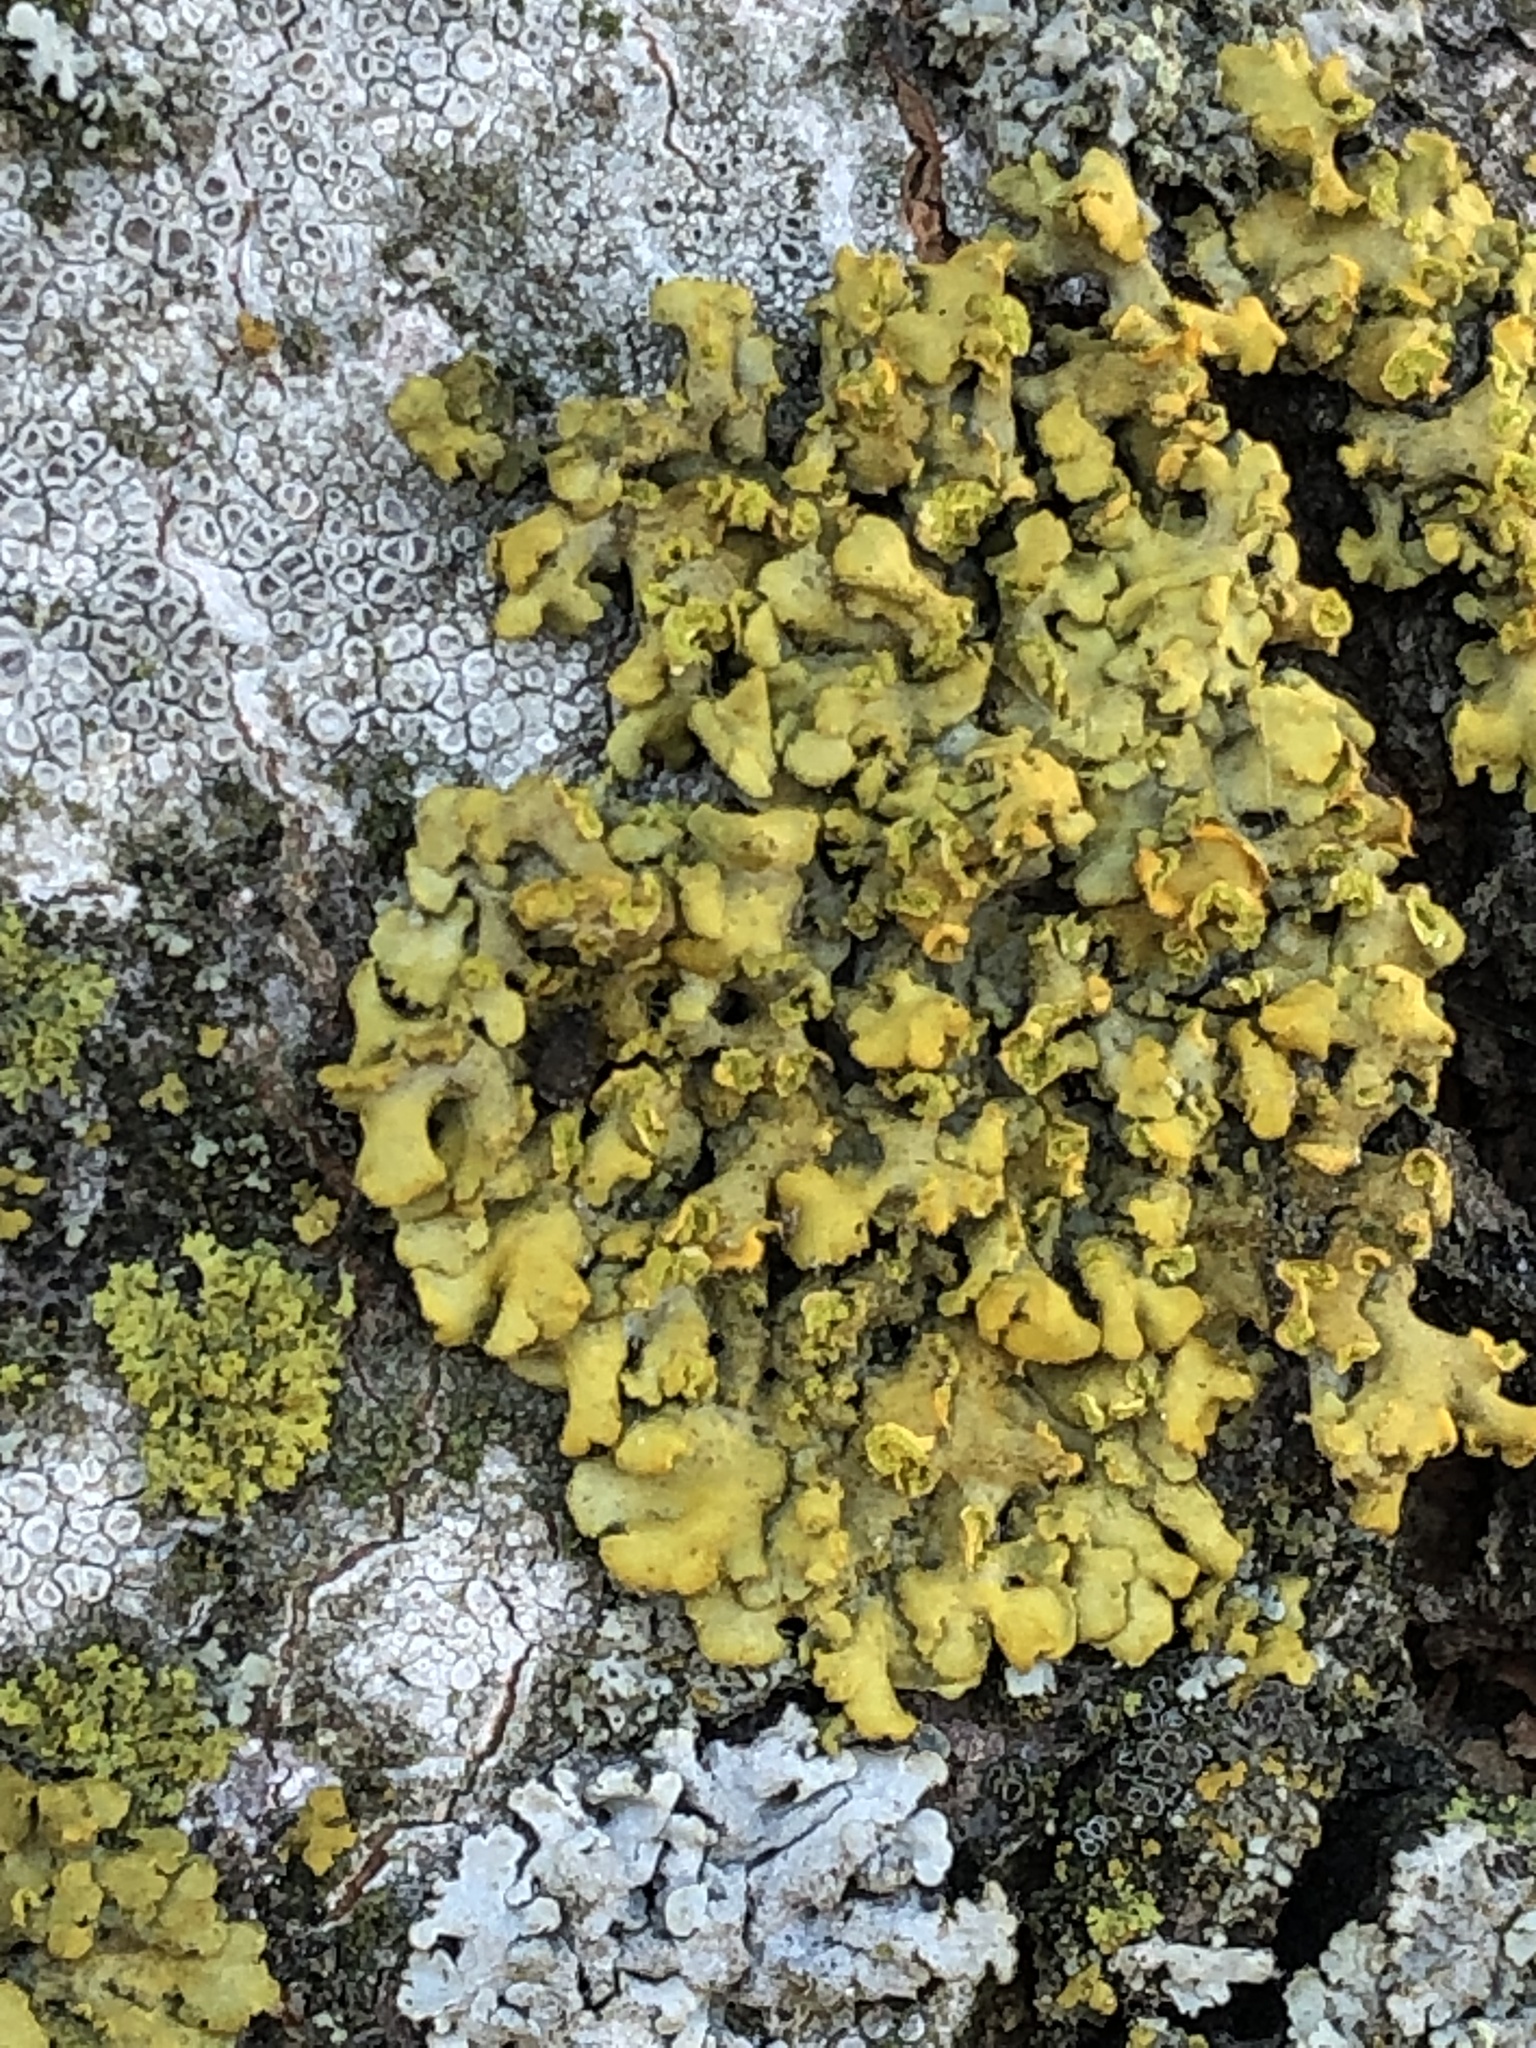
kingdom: Fungi
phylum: Ascomycota
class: Lecanoromycetes
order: Teloschistales
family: Teloschistaceae
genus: Oxneria
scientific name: Oxneria fallax
